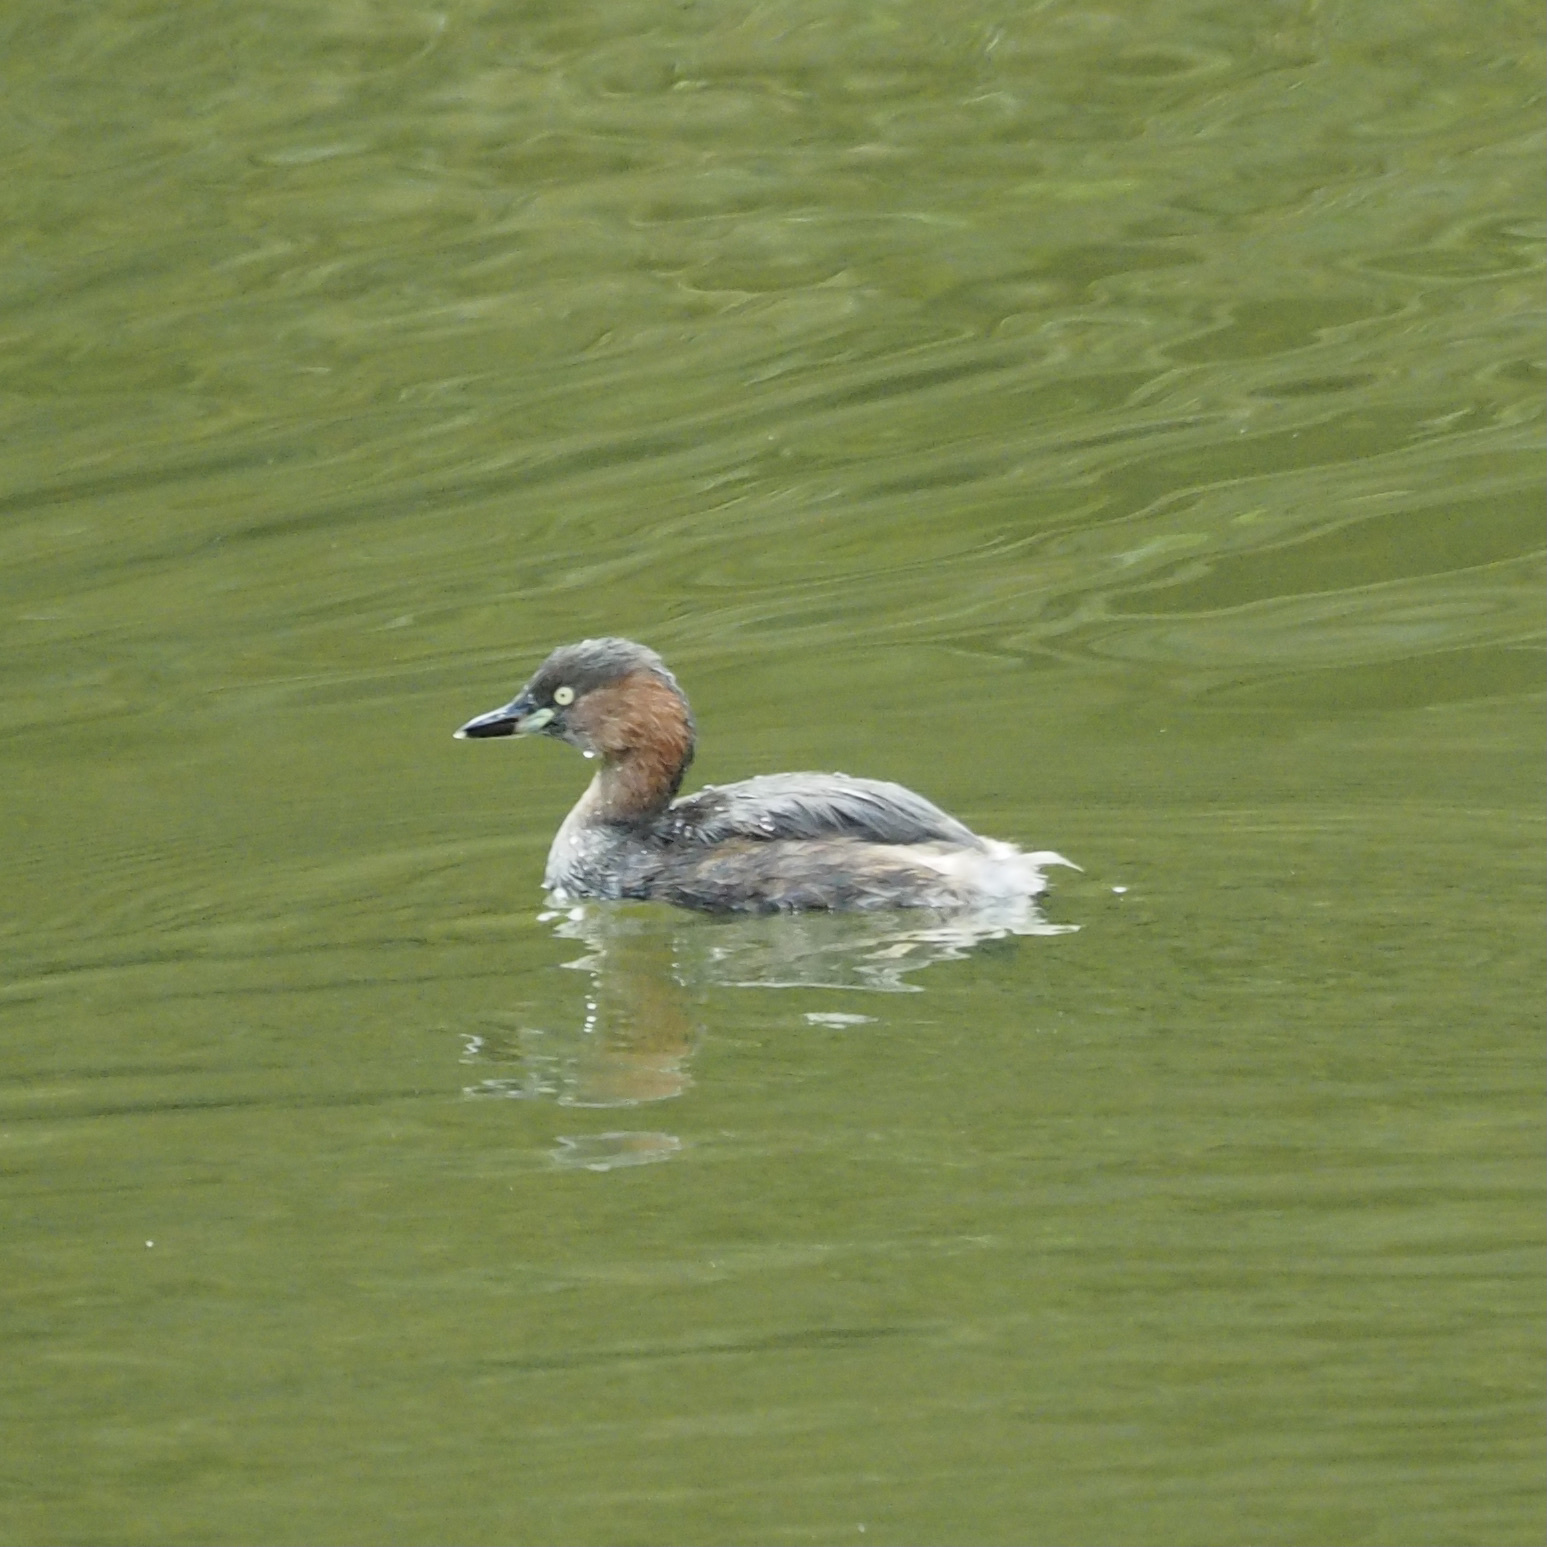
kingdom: Animalia
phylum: Chordata
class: Aves
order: Podicipediformes
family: Podicipedidae
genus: Tachybaptus
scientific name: Tachybaptus ruficollis
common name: Little grebe
